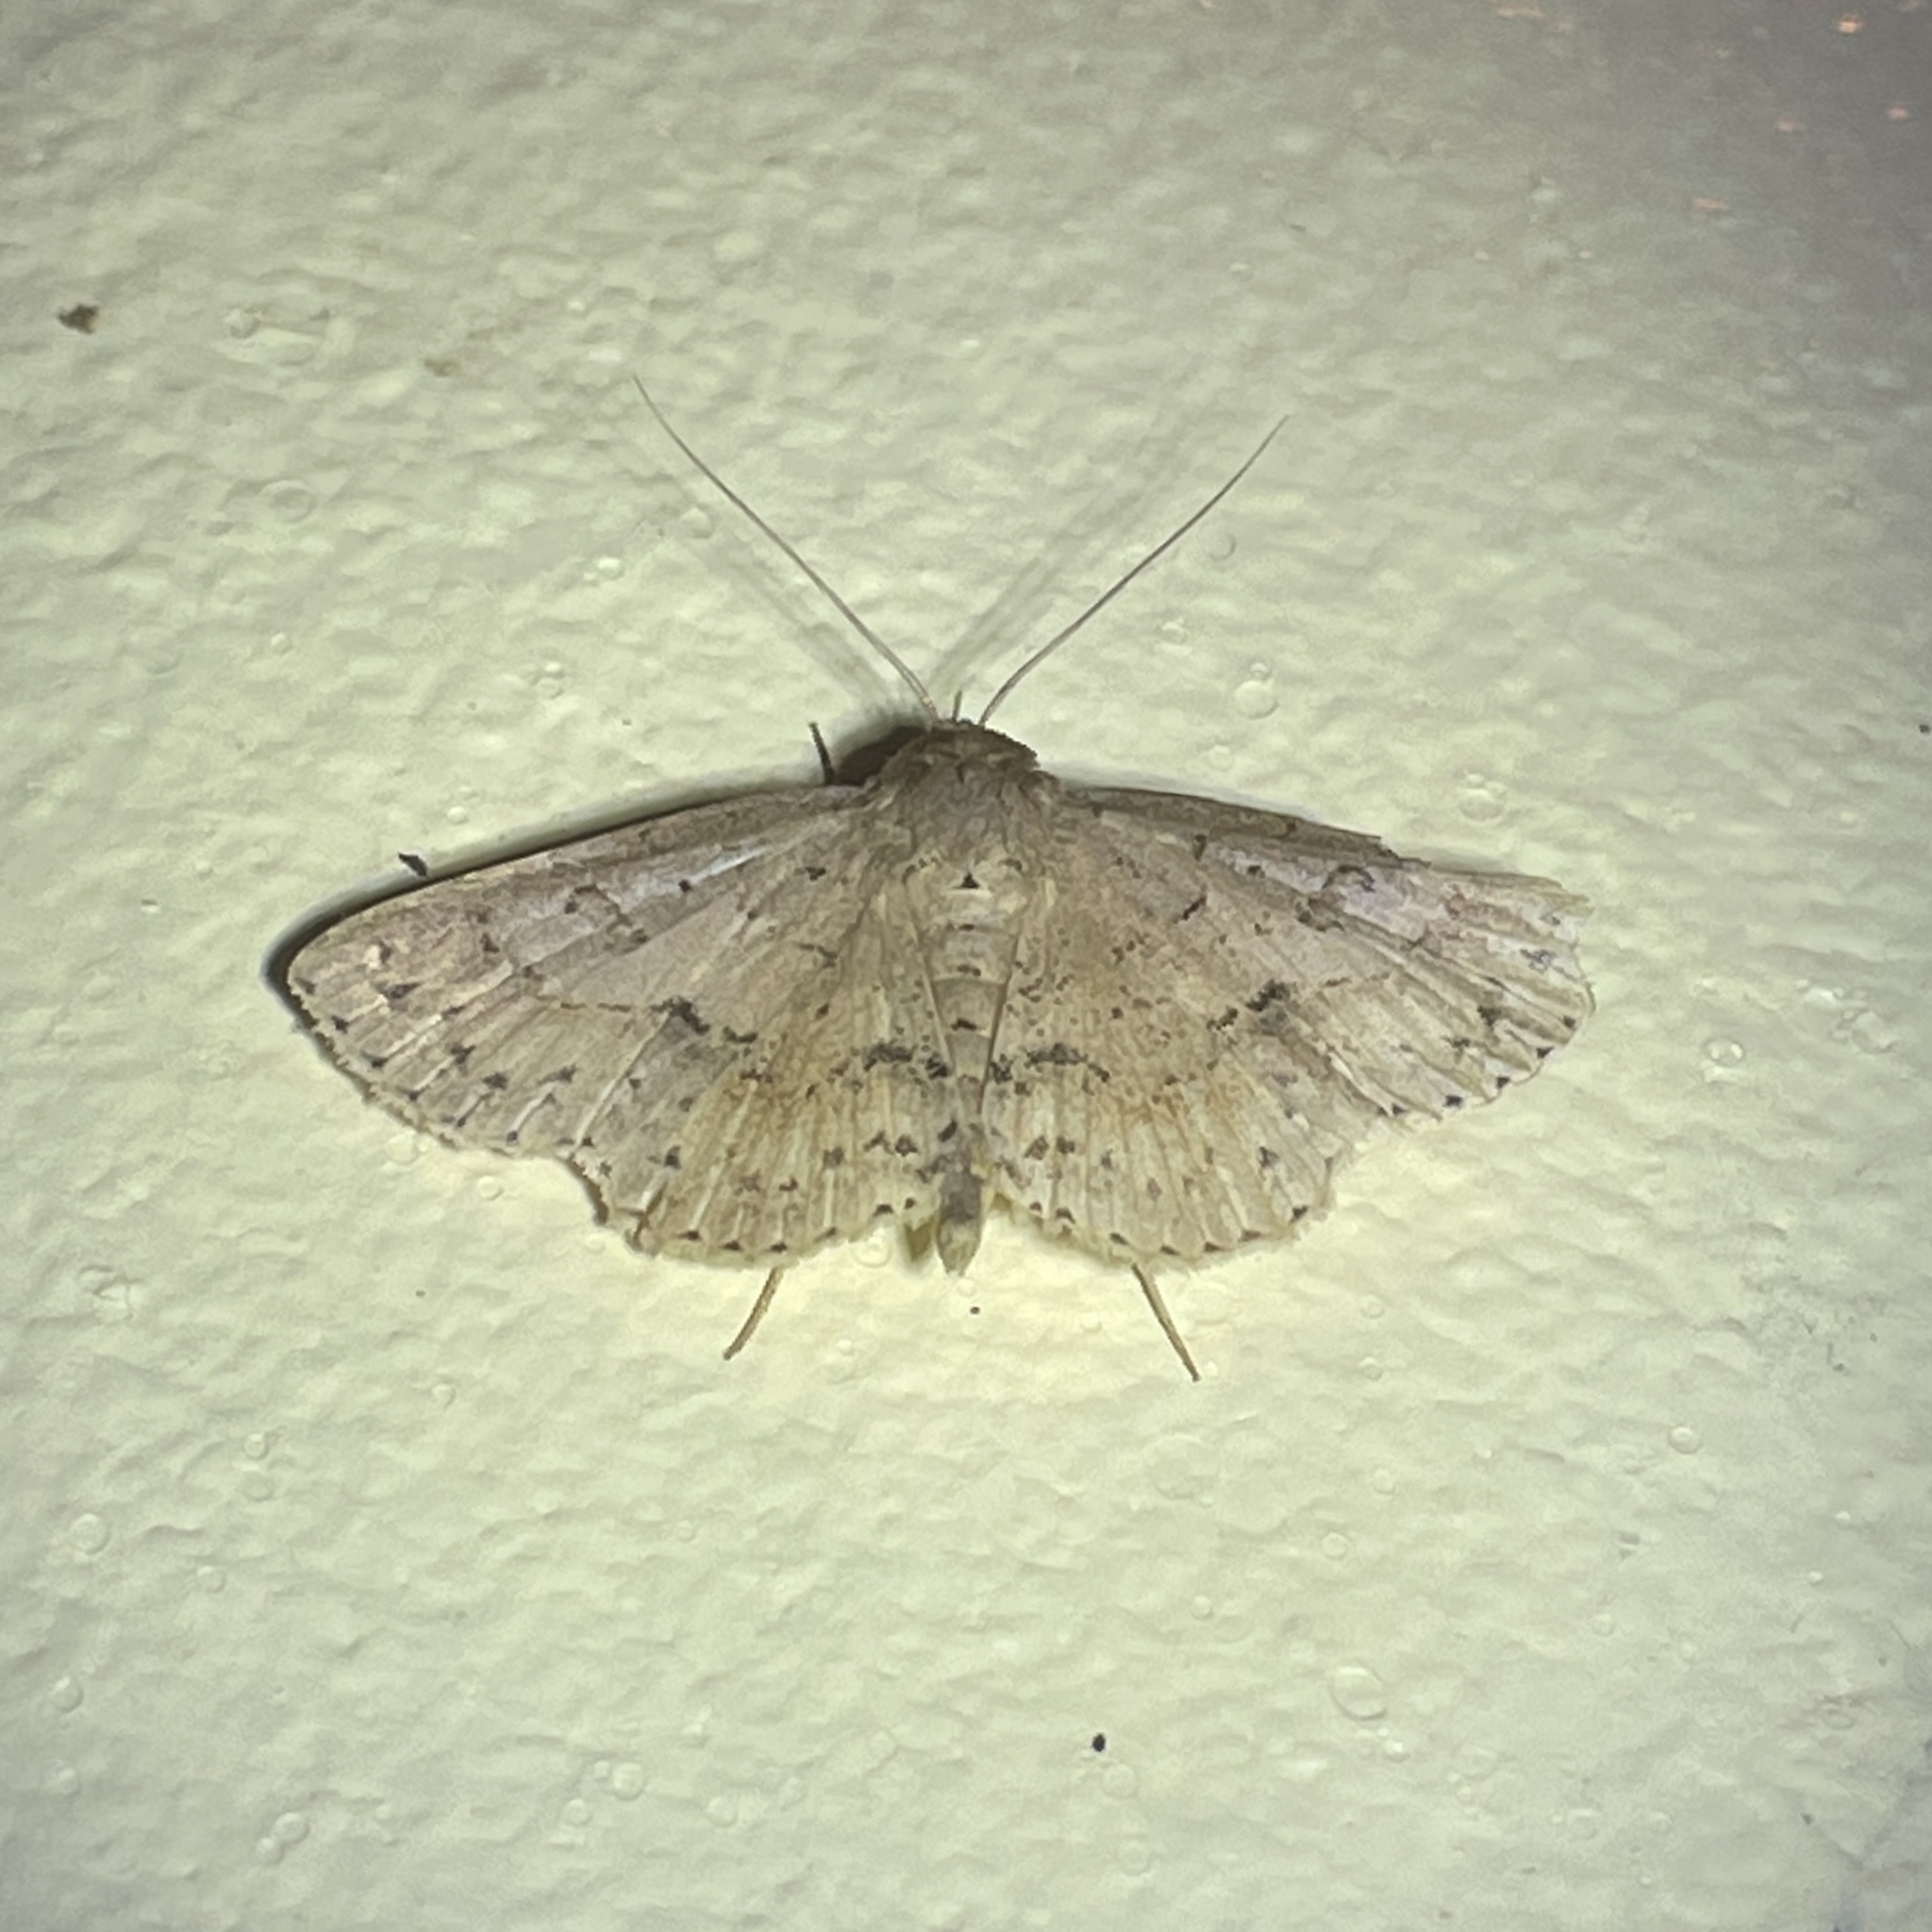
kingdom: Animalia
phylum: Arthropoda
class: Insecta
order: Lepidoptera
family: Erebidae
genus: Antiblemma
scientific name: Antiblemma melanoides
